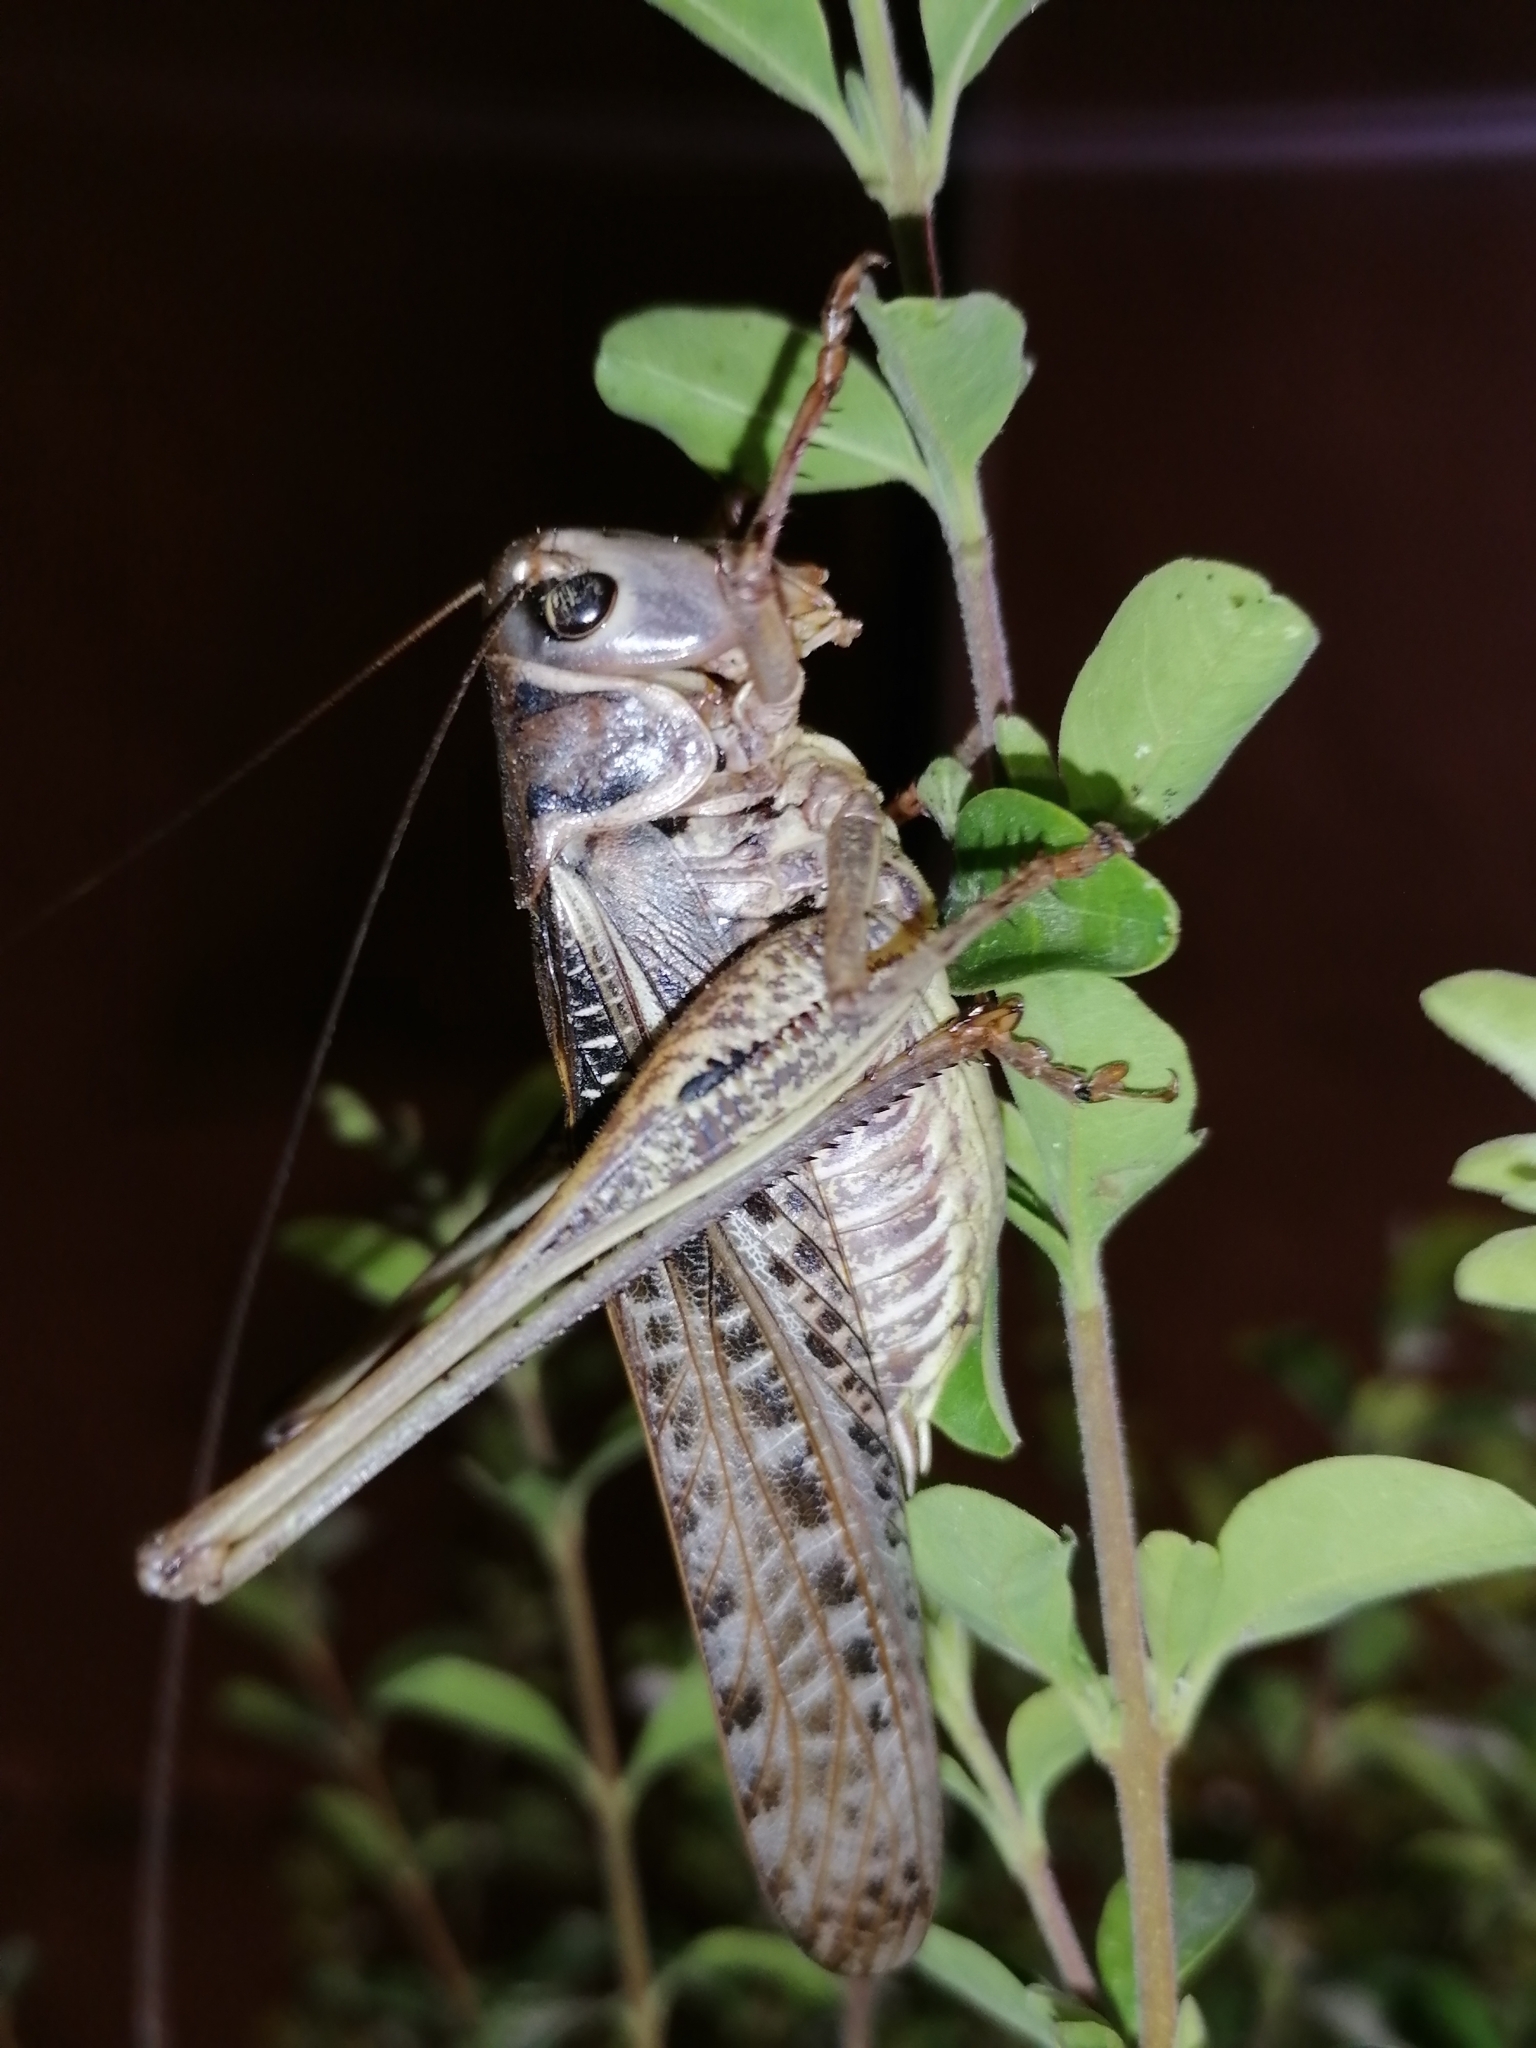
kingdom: Animalia
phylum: Arthropoda
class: Insecta
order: Orthoptera
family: Tettigoniidae
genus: Decticus
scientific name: Decticus albifrons
